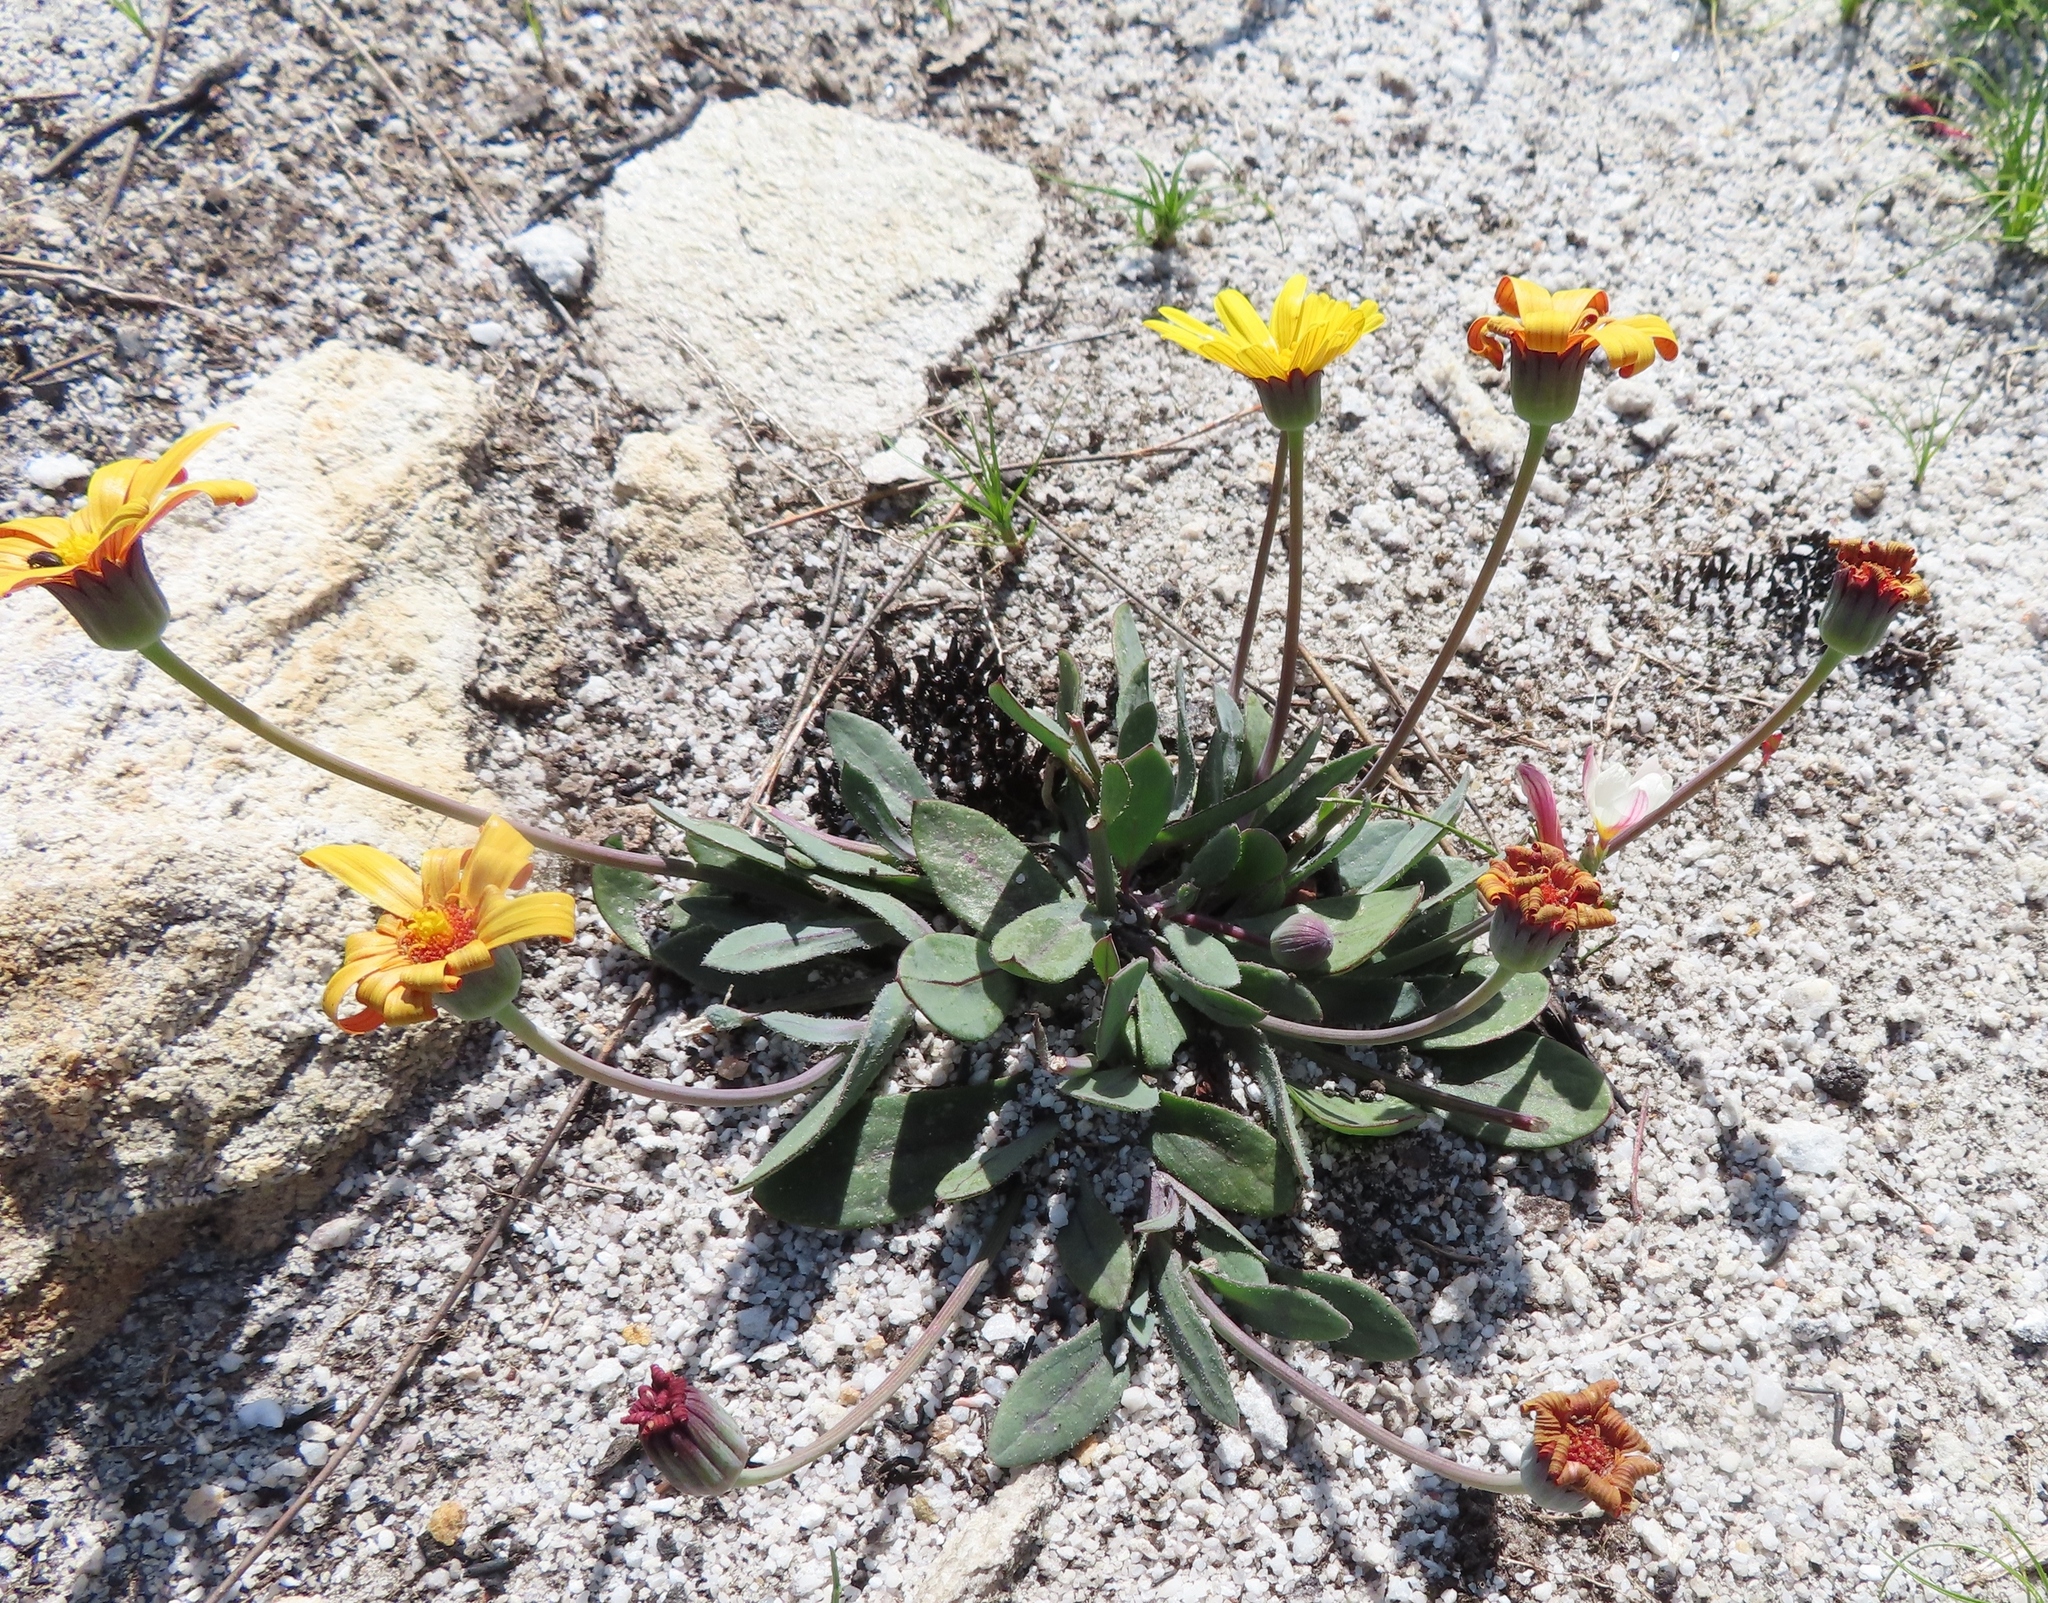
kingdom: Plantae
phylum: Tracheophyta
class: Magnoliopsida
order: Asterales
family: Asteraceae
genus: Othonna
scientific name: Othonna bulbosa
